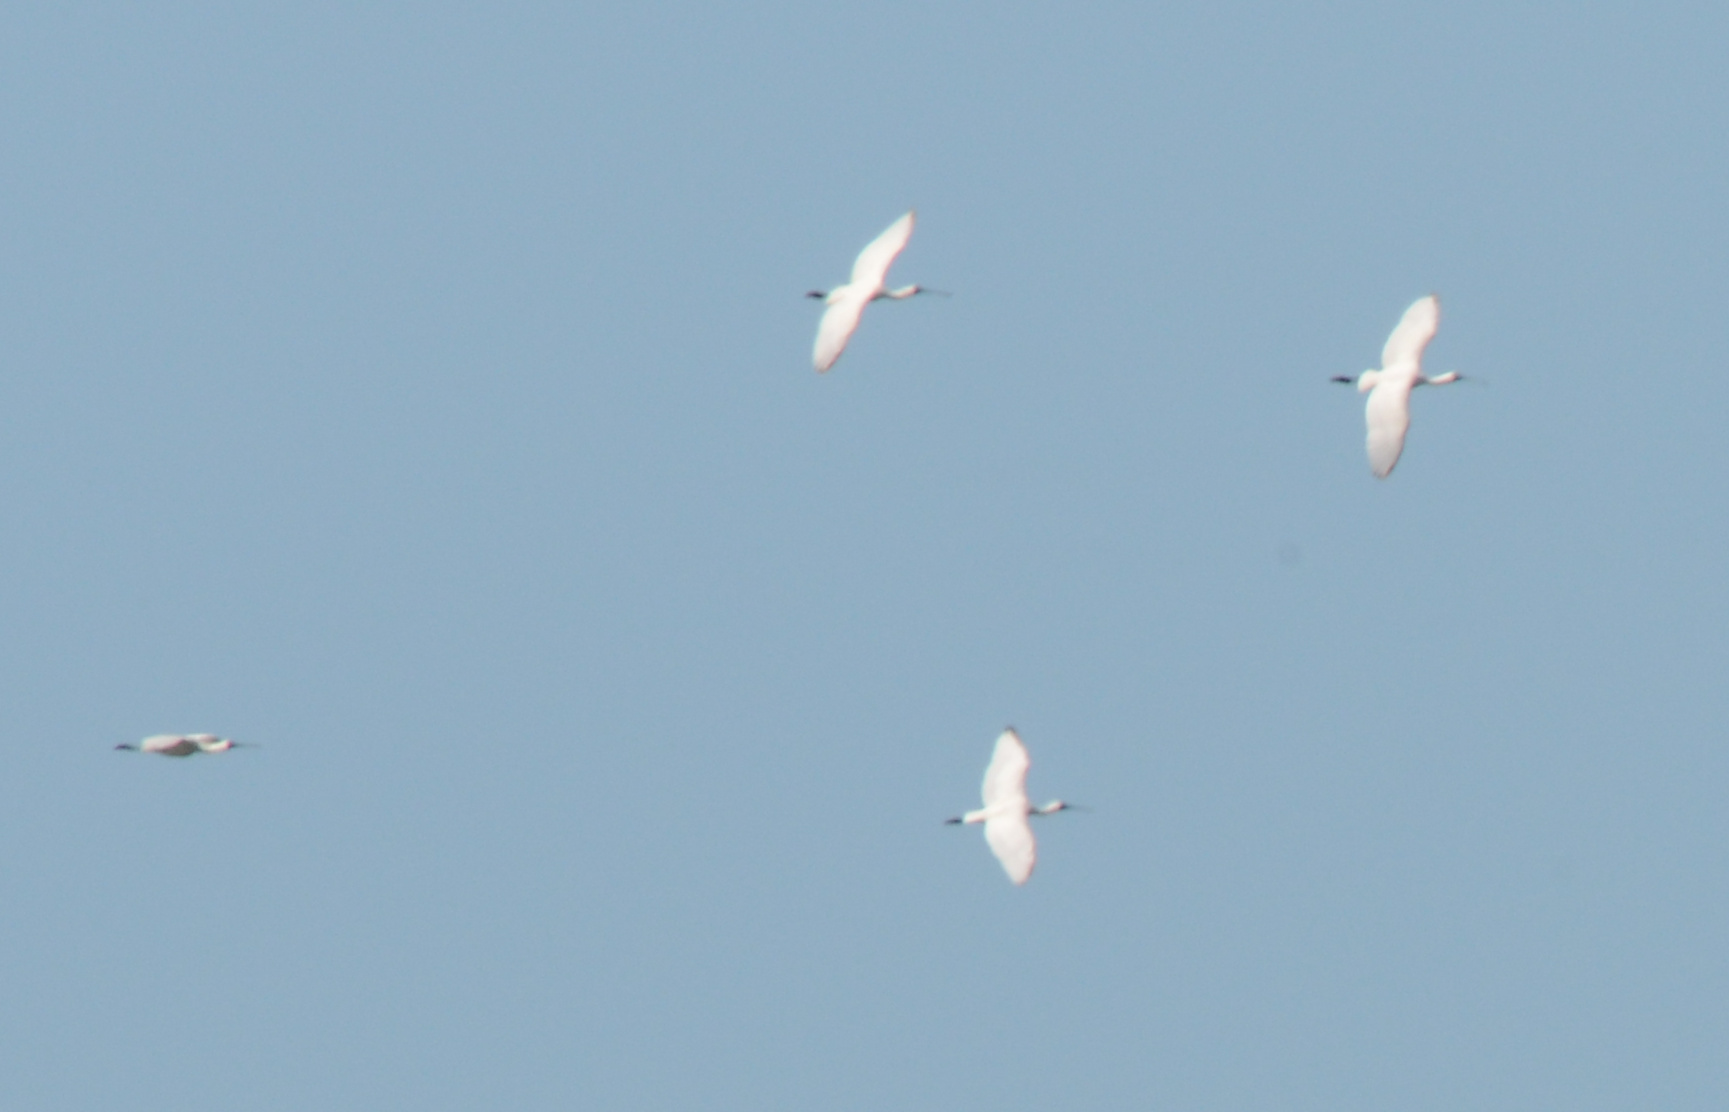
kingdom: Animalia
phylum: Chordata
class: Aves
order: Pelecaniformes
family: Threskiornithidae
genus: Platalea
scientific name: Platalea regia
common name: Royal spoonbill
